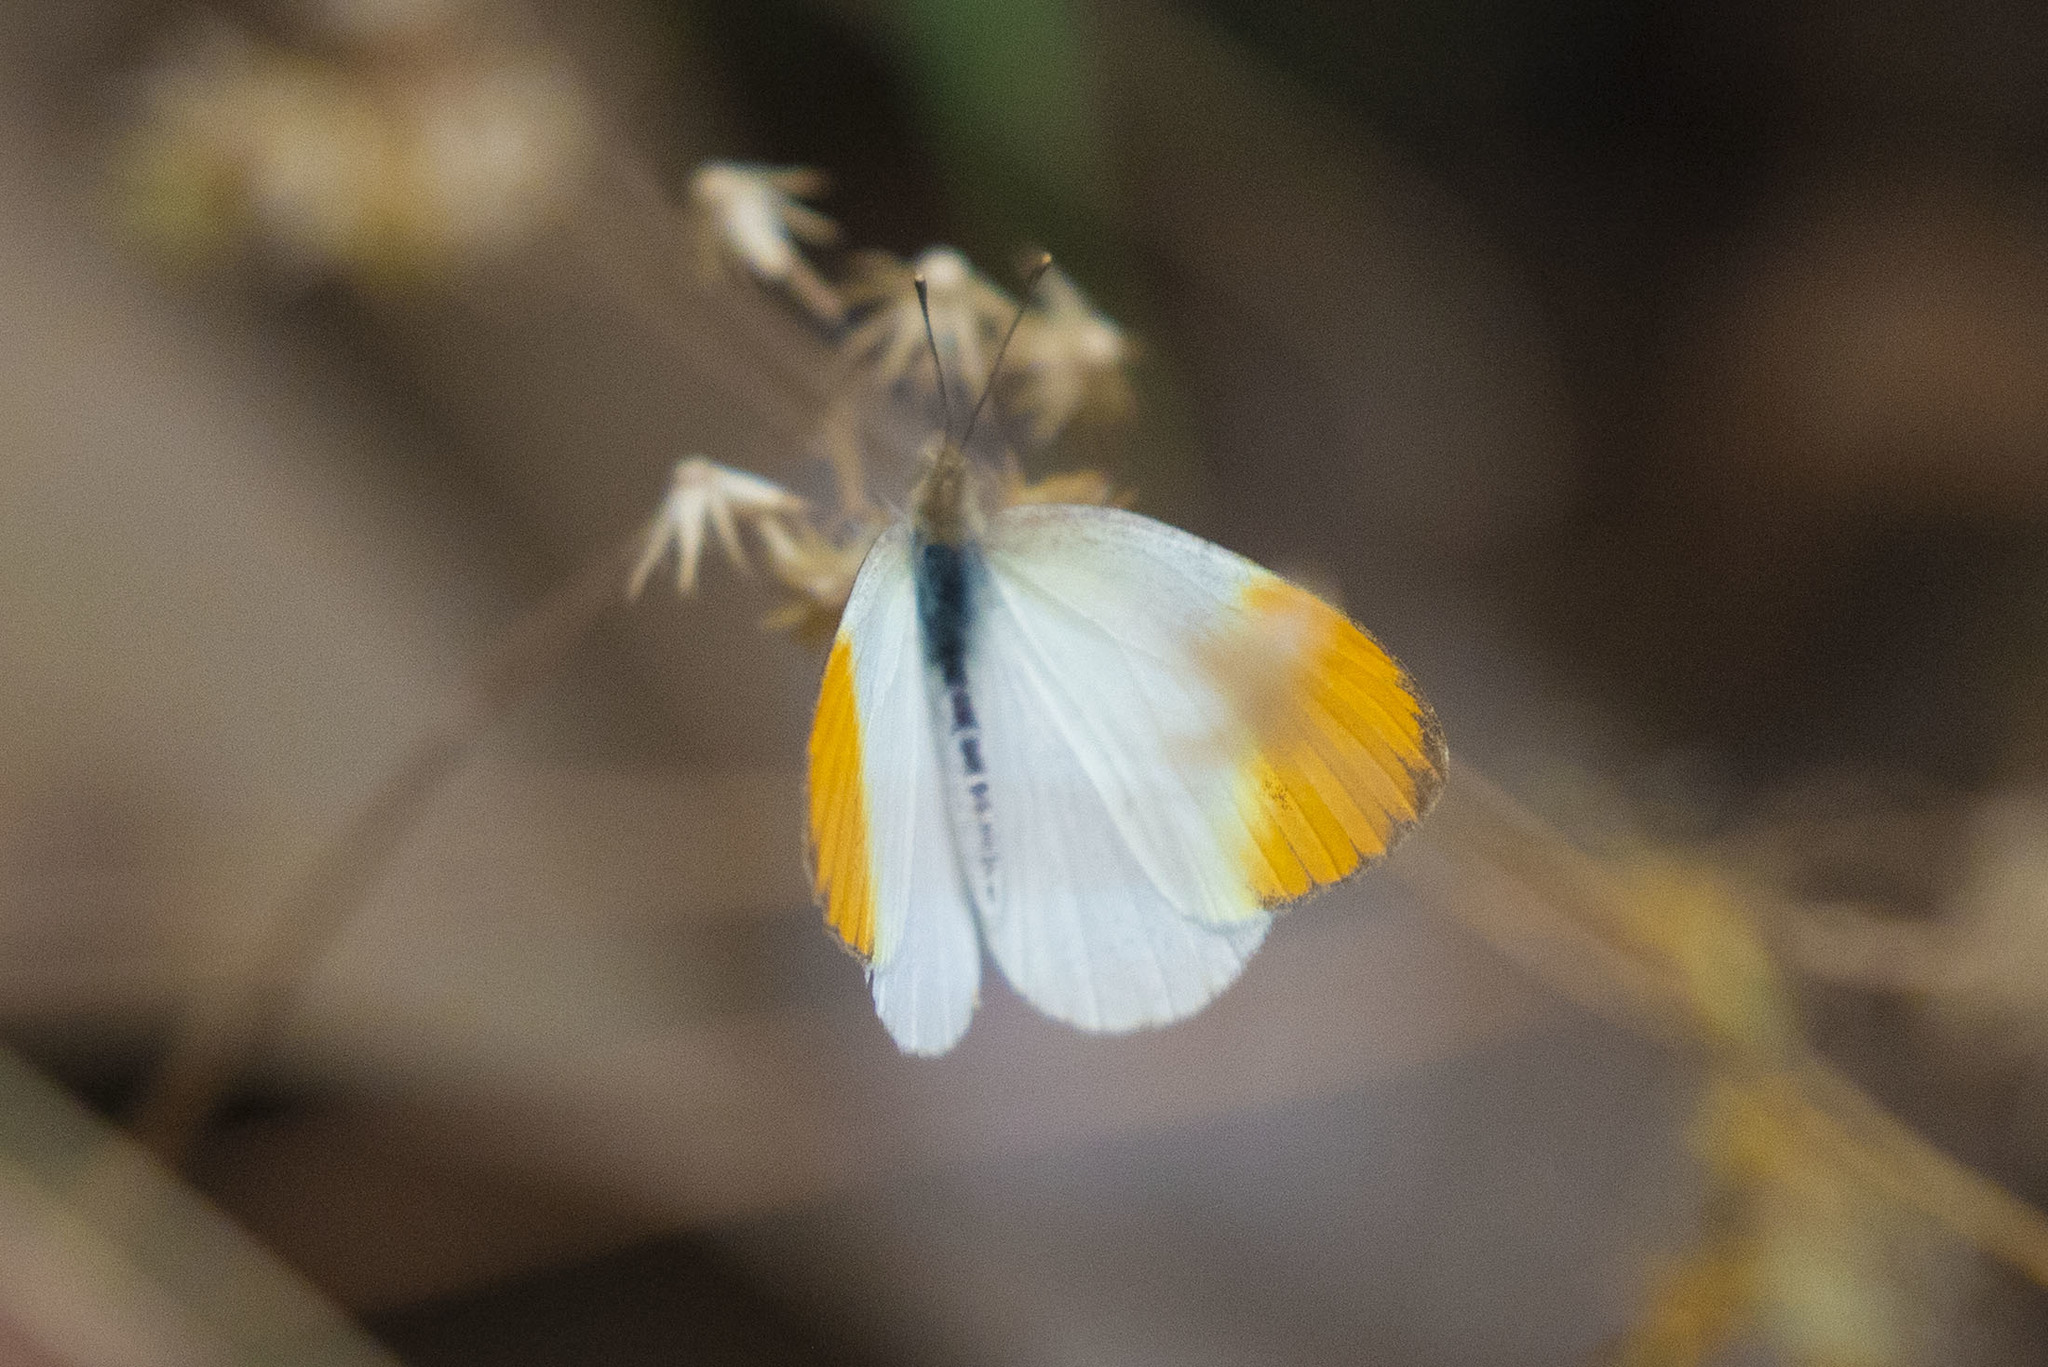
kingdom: Animalia
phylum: Arthropoda
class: Insecta
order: Lepidoptera
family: Pieridae
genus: Colotis
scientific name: Colotis aurora
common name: Plain orange-tip
